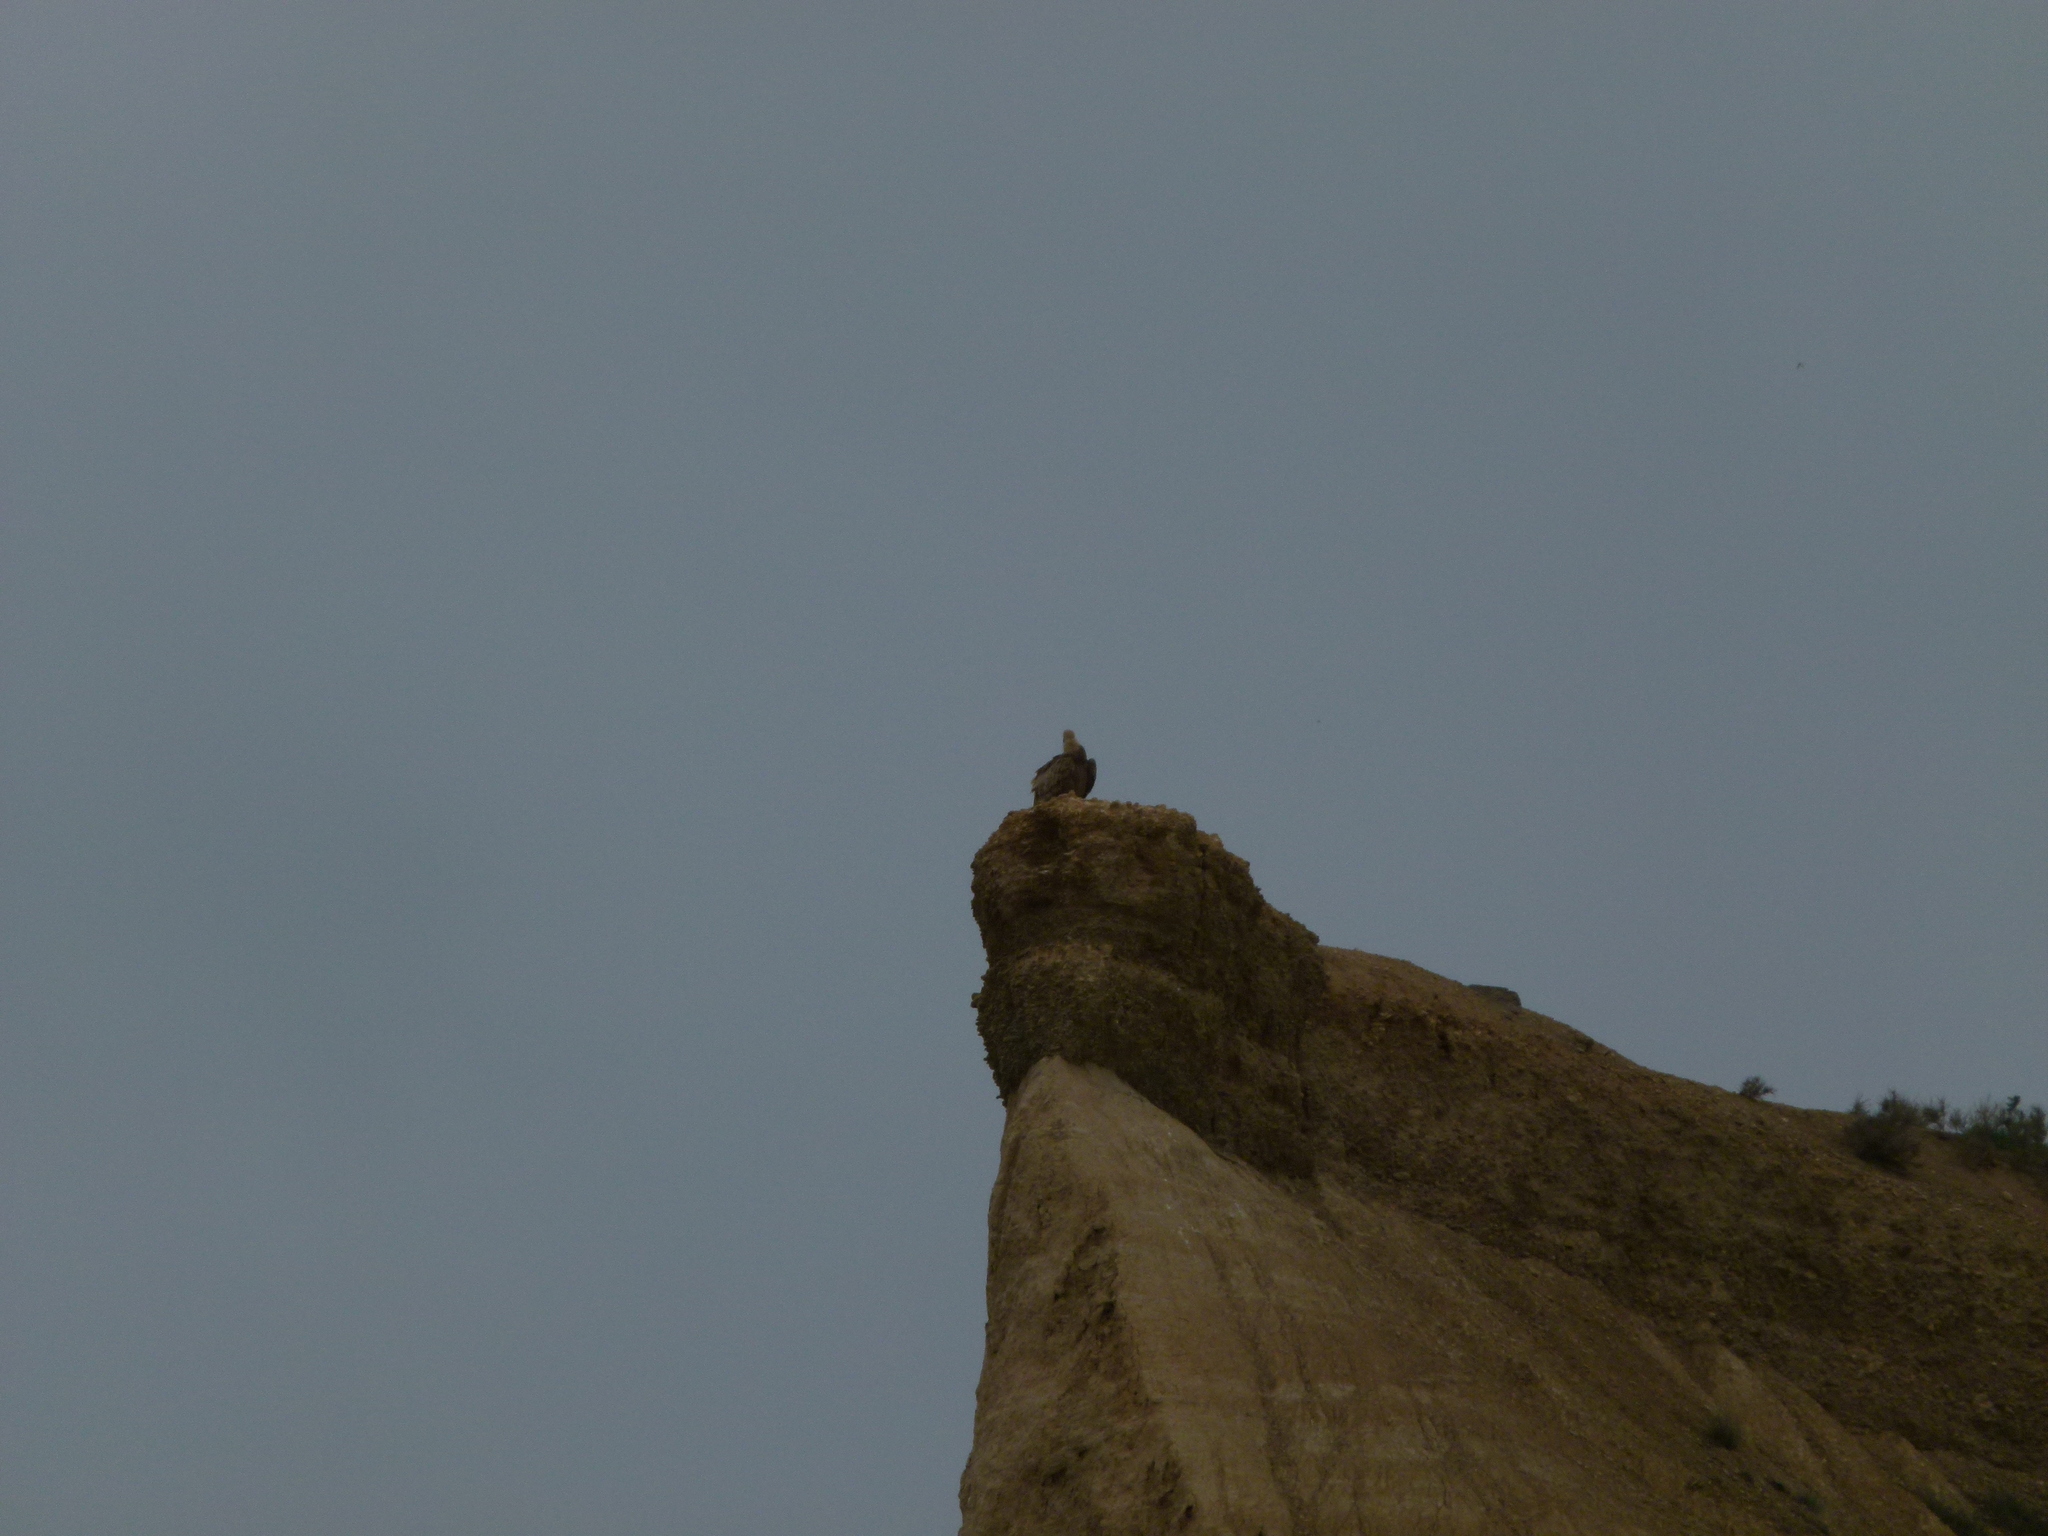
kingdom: Animalia
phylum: Chordata
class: Aves
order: Accipitriformes
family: Accipitridae
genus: Gyps
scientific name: Gyps fulvus
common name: Griffon vulture
